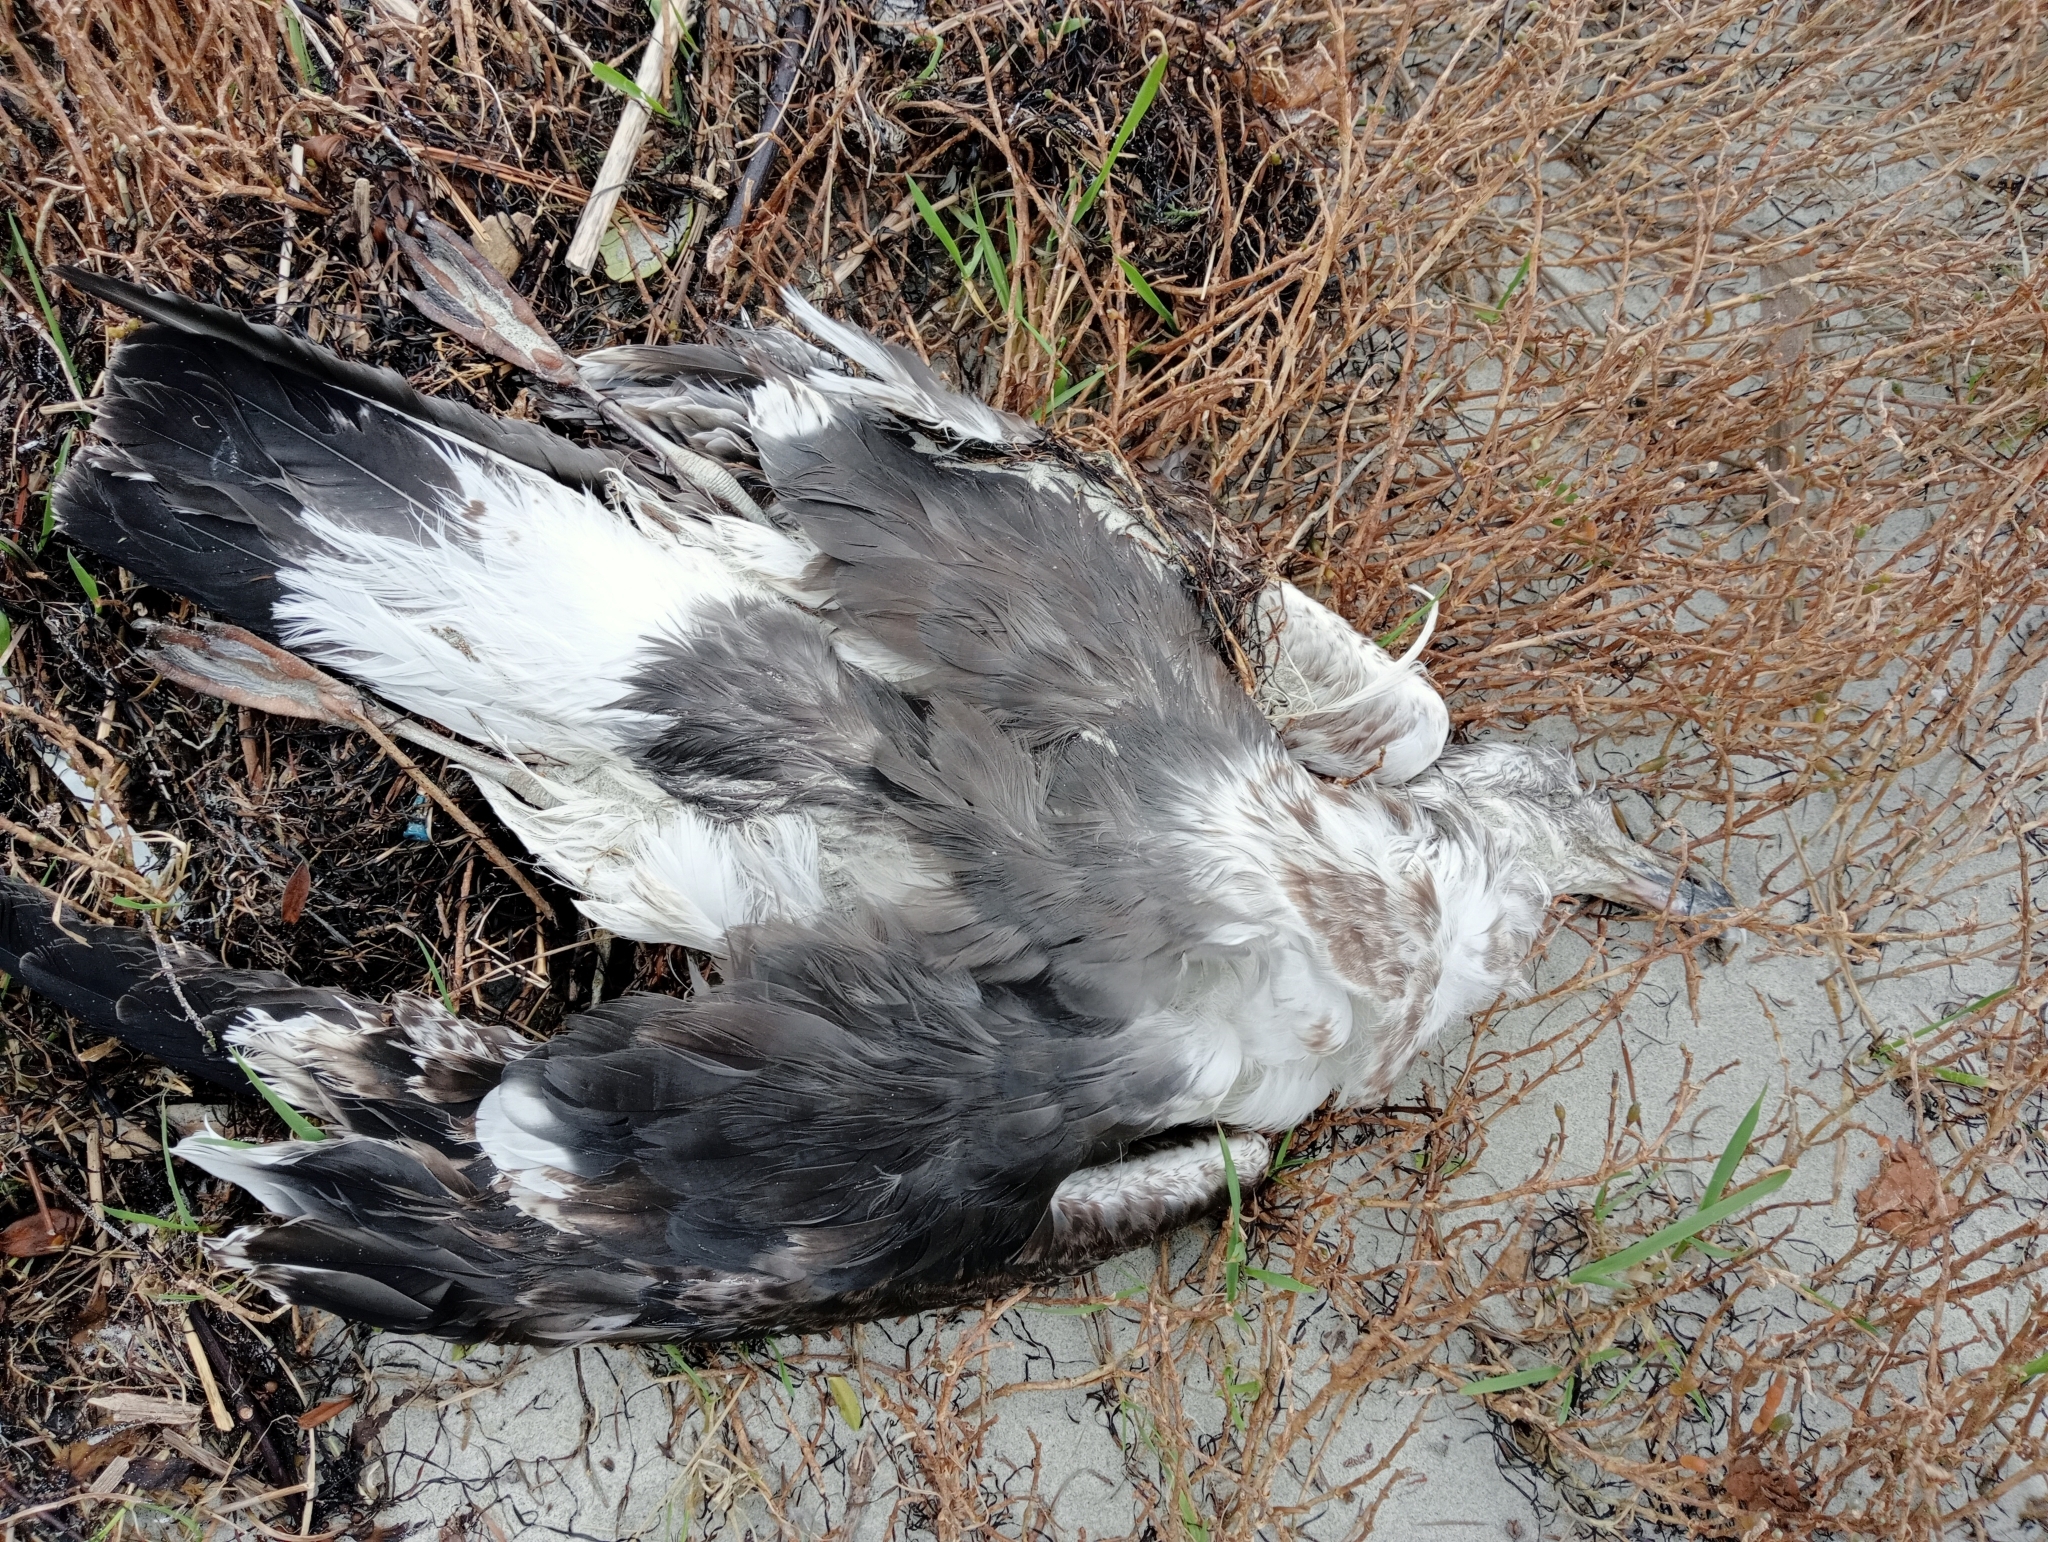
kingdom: Animalia
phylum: Chordata
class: Aves
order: Charadriiformes
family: Laridae
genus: Larus
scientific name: Larus dominicanus
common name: Kelp gull
